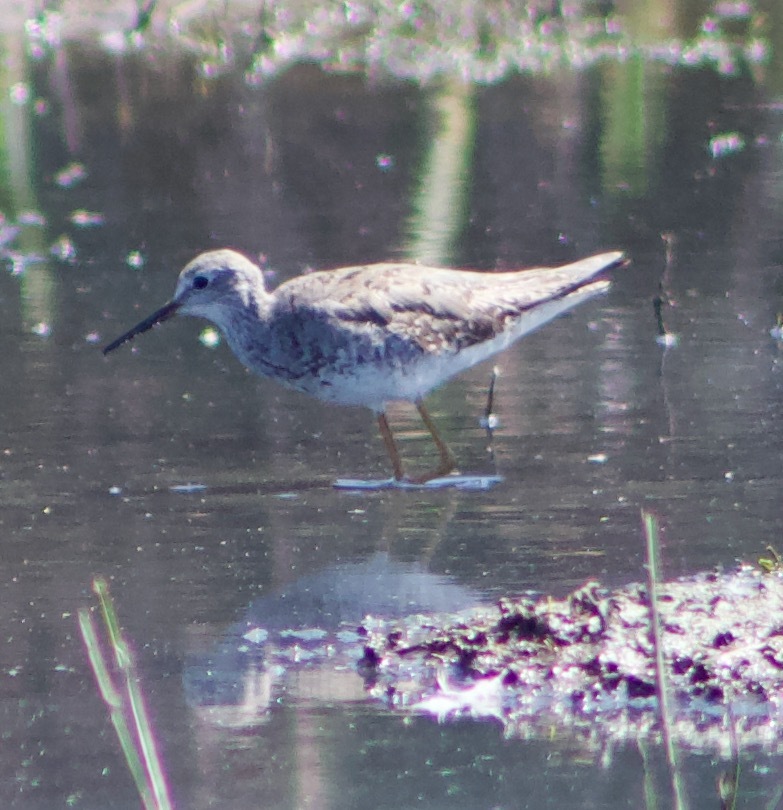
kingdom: Animalia
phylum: Chordata
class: Aves
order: Charadriiformes
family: Scolopacidae
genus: Tringa
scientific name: Tringa flavipes
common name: Lesser yellowlegs
